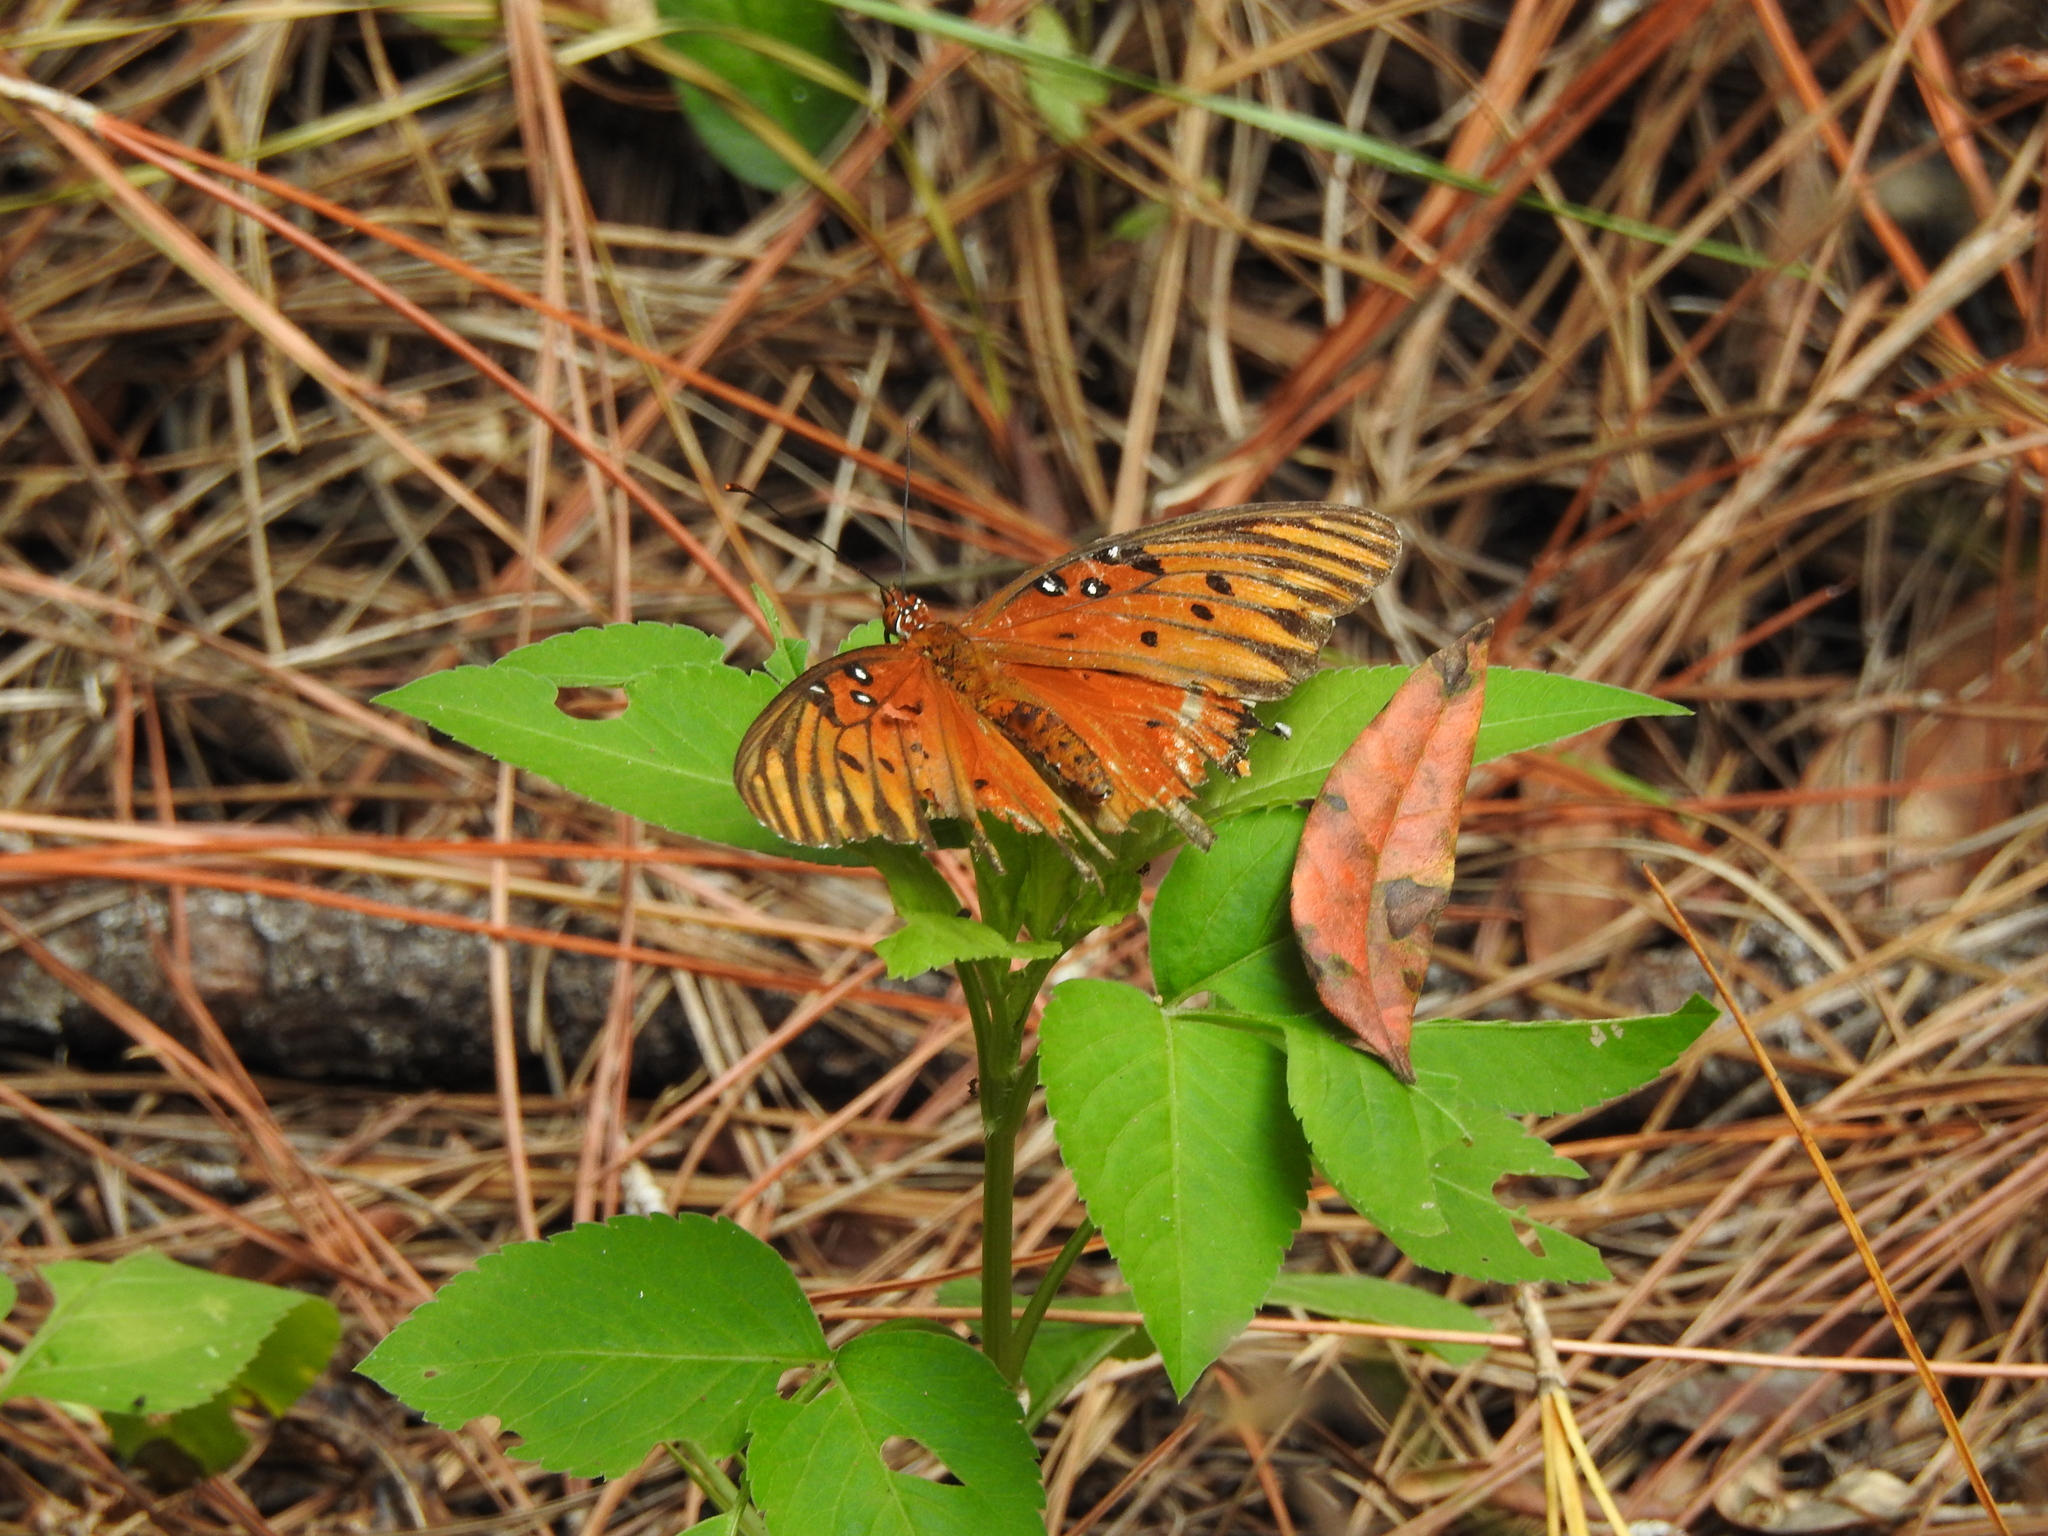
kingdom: Animalia
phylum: Arthropoda
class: Insecta
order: Lepidoptera
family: Nymphalidae
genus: Dione
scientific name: Dione vanillae
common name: Gulf fritillary
